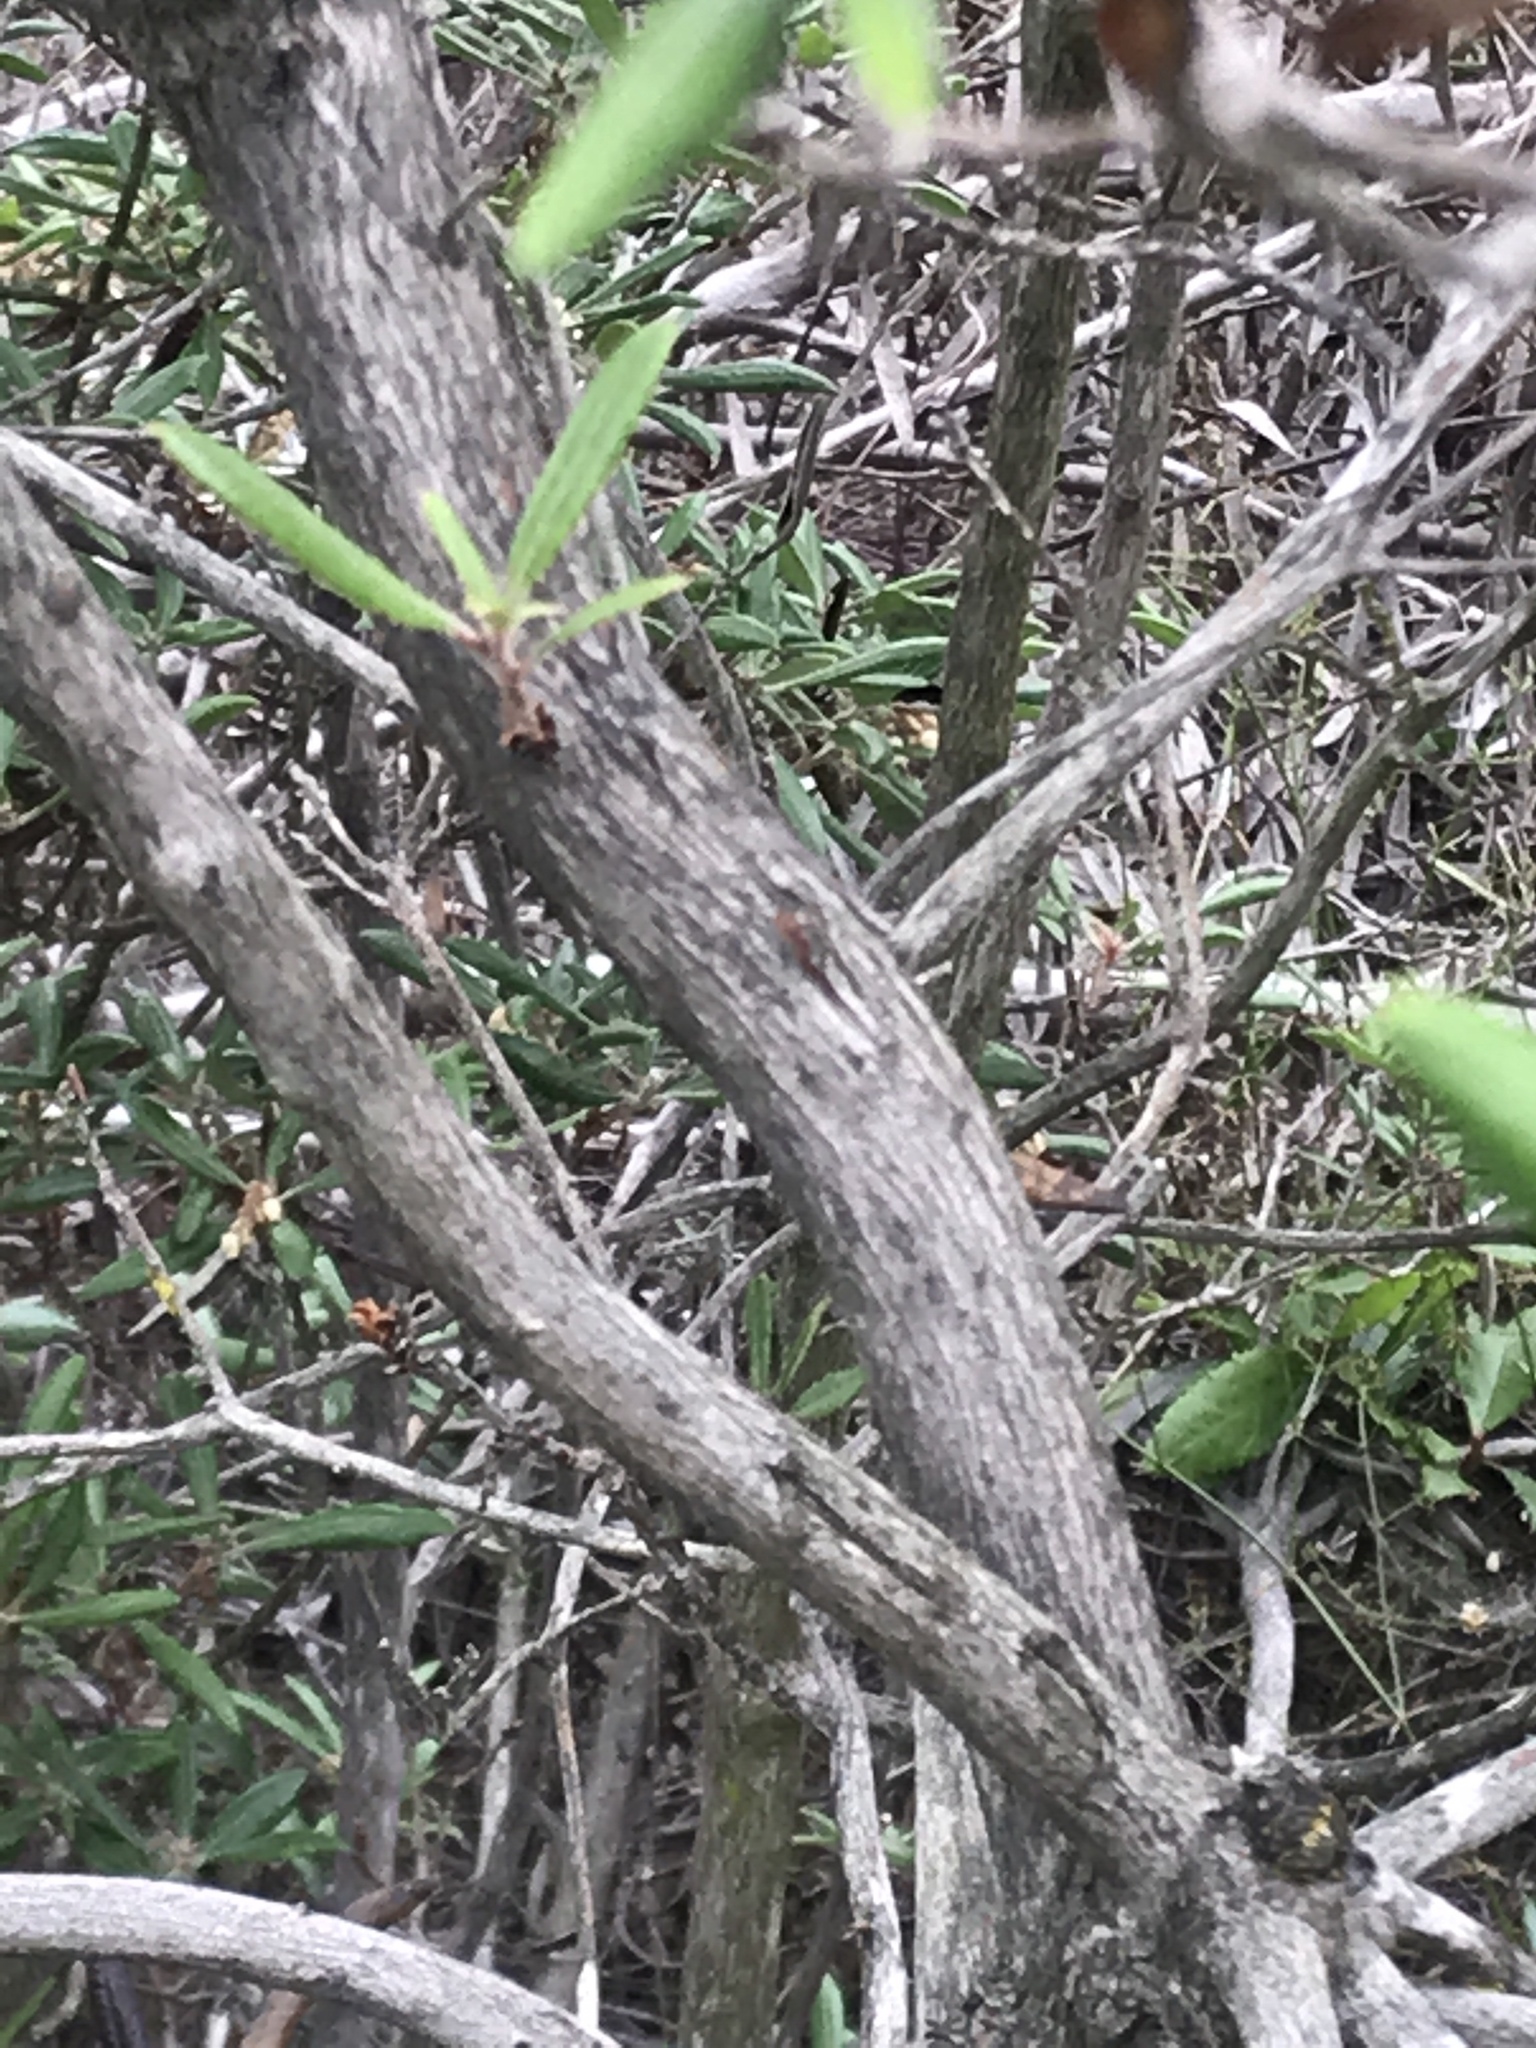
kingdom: Plantae
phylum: Tracheophyta
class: Magnoliopsida
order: Ericales
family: Ericaceae
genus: Comarostaphylis
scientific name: Comarostaphylis diversifolia
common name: Summer-holly
